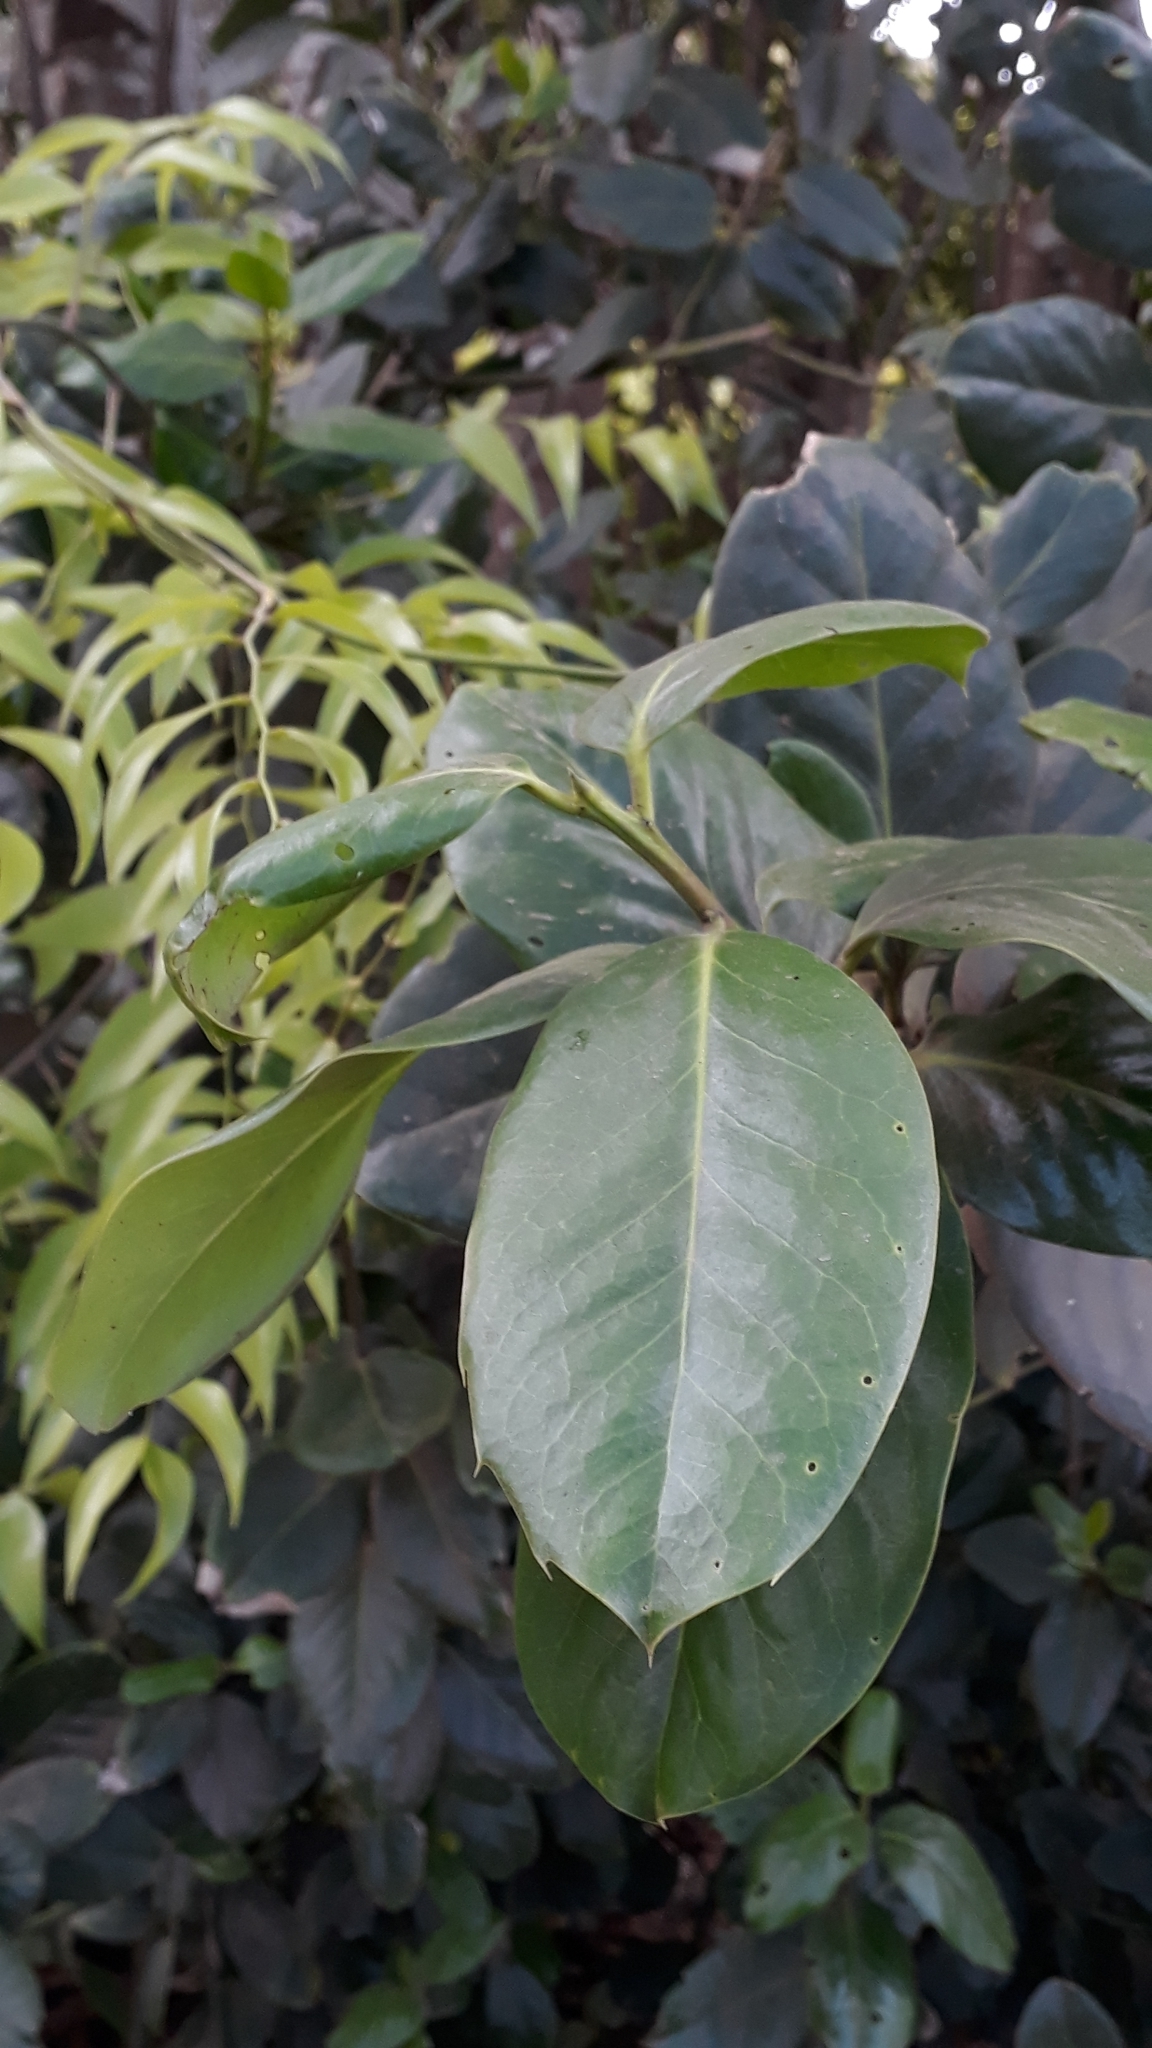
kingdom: Plantae
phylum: Tracheophyta
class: Magnoliopsida
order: Aquifoliales
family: Aquifoliaceae
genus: Ilex
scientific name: Ilex perado
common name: Madeira holly
